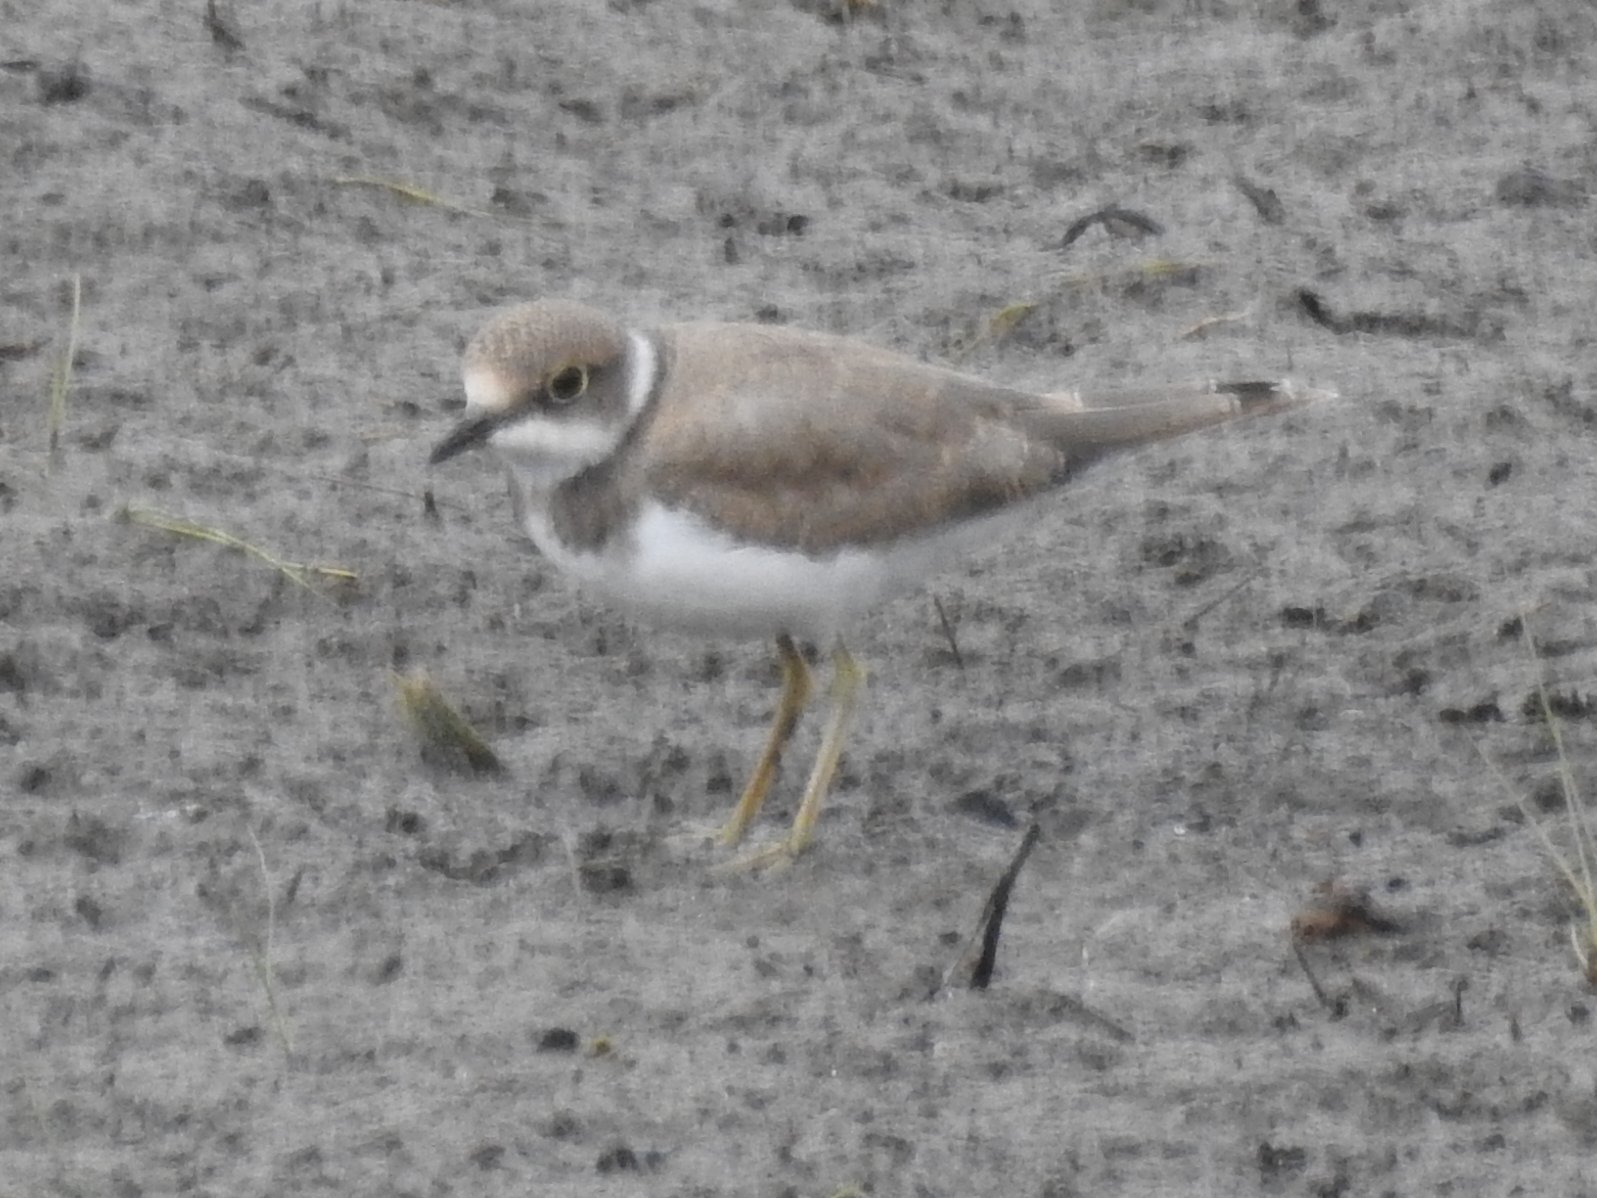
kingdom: Animalia
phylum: Chordata
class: Aves
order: Charadriiformes
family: Charadriidae
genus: Charadrius
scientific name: Charadrius dubius
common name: Little ringed plover
